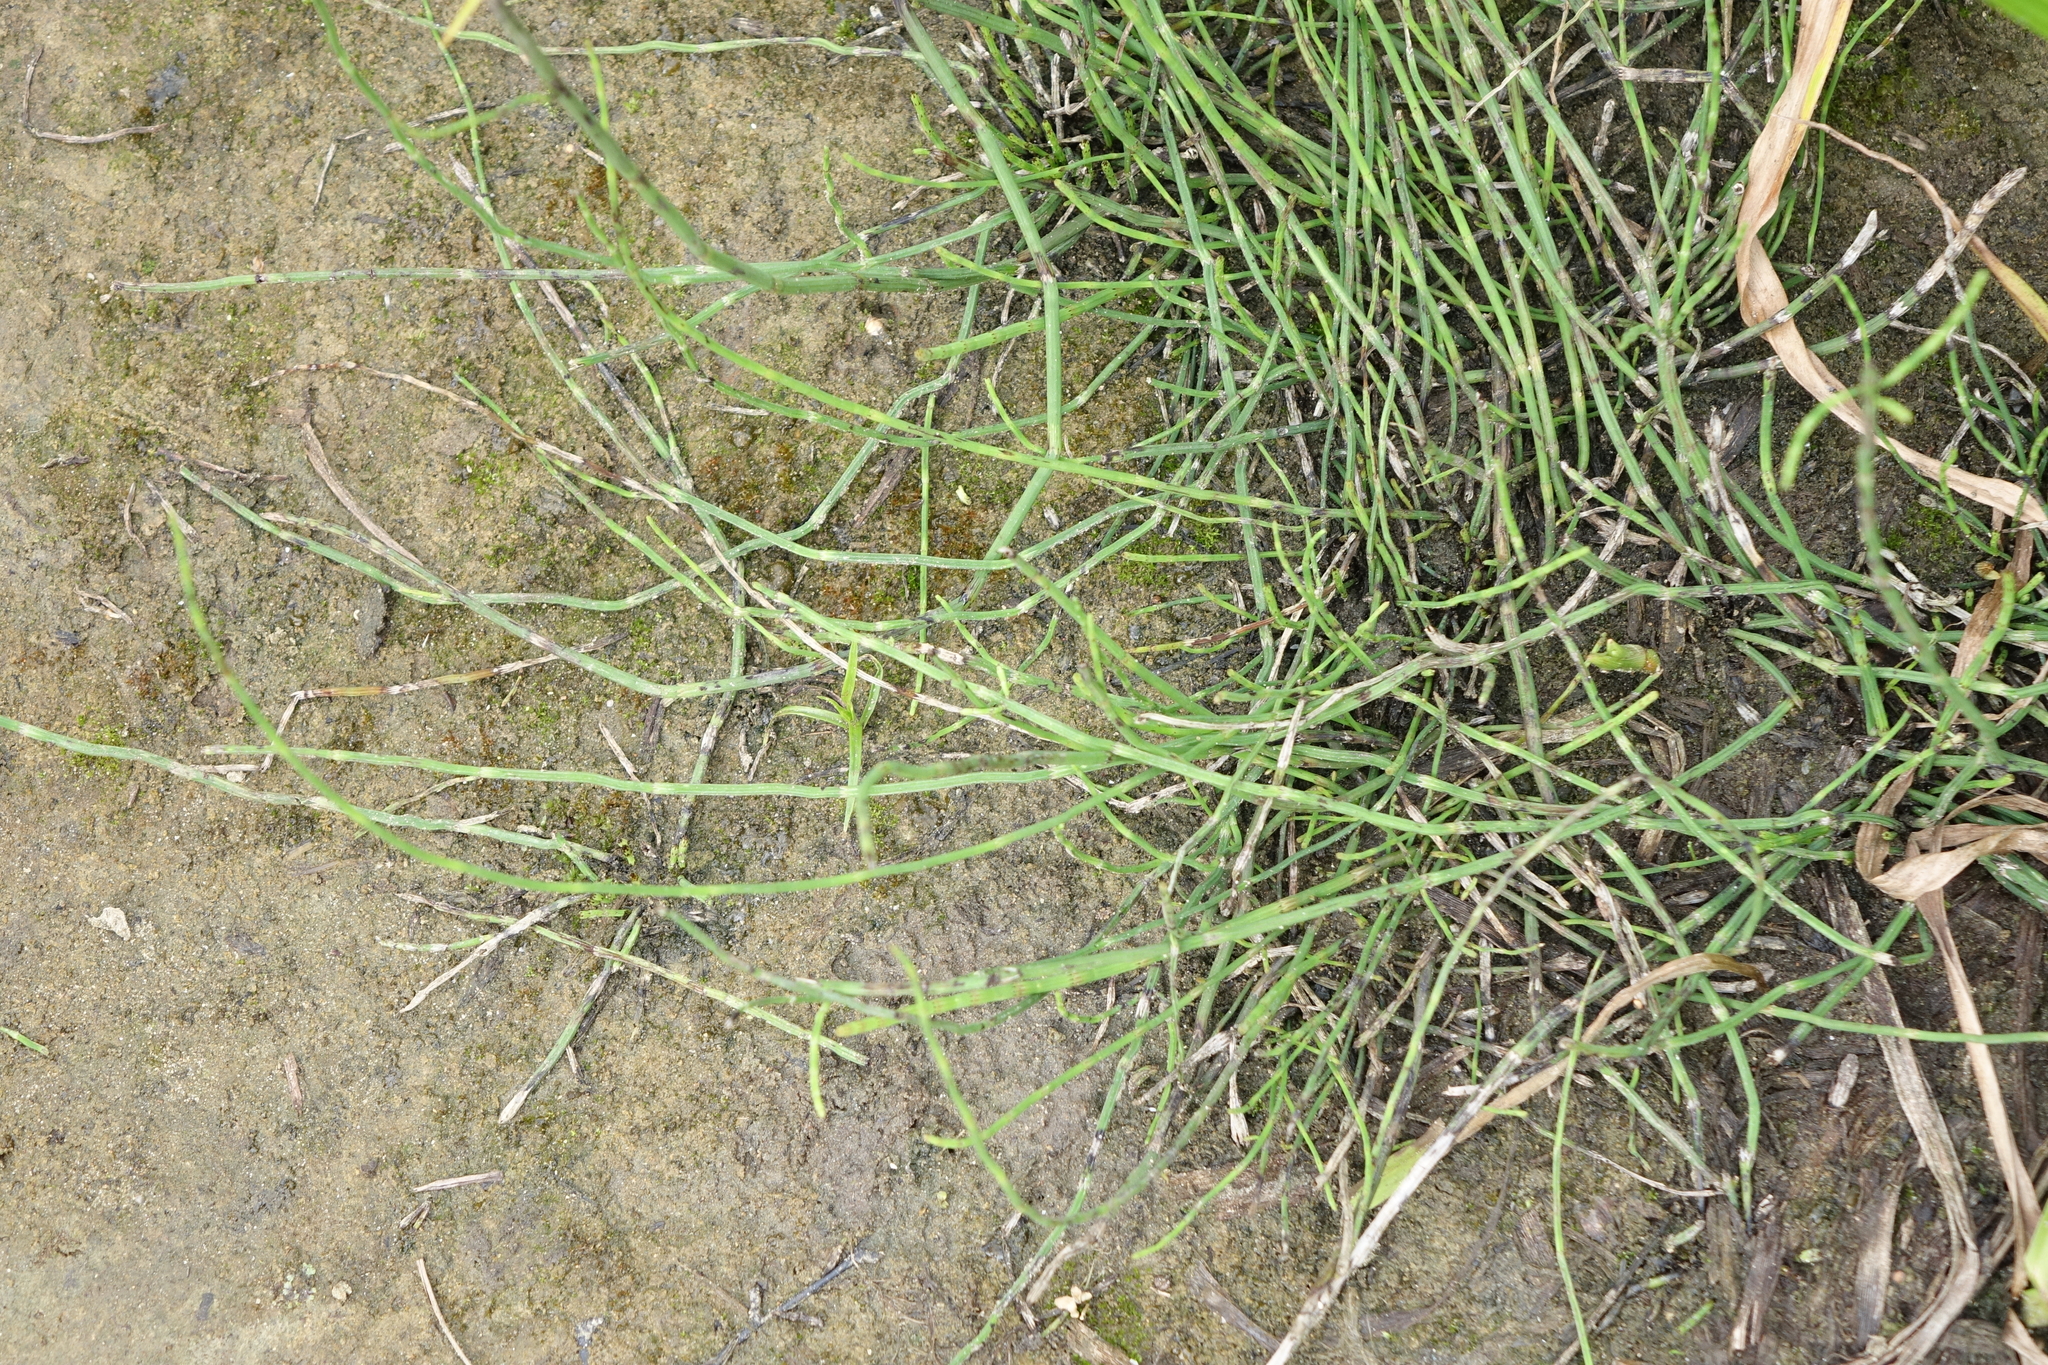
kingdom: Plantae
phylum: Tracheophyta
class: Polypodiopsida
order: Equisetales
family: Equisetaceae
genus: Equisetum
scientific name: Equisetum arvense
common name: Field horsetail
